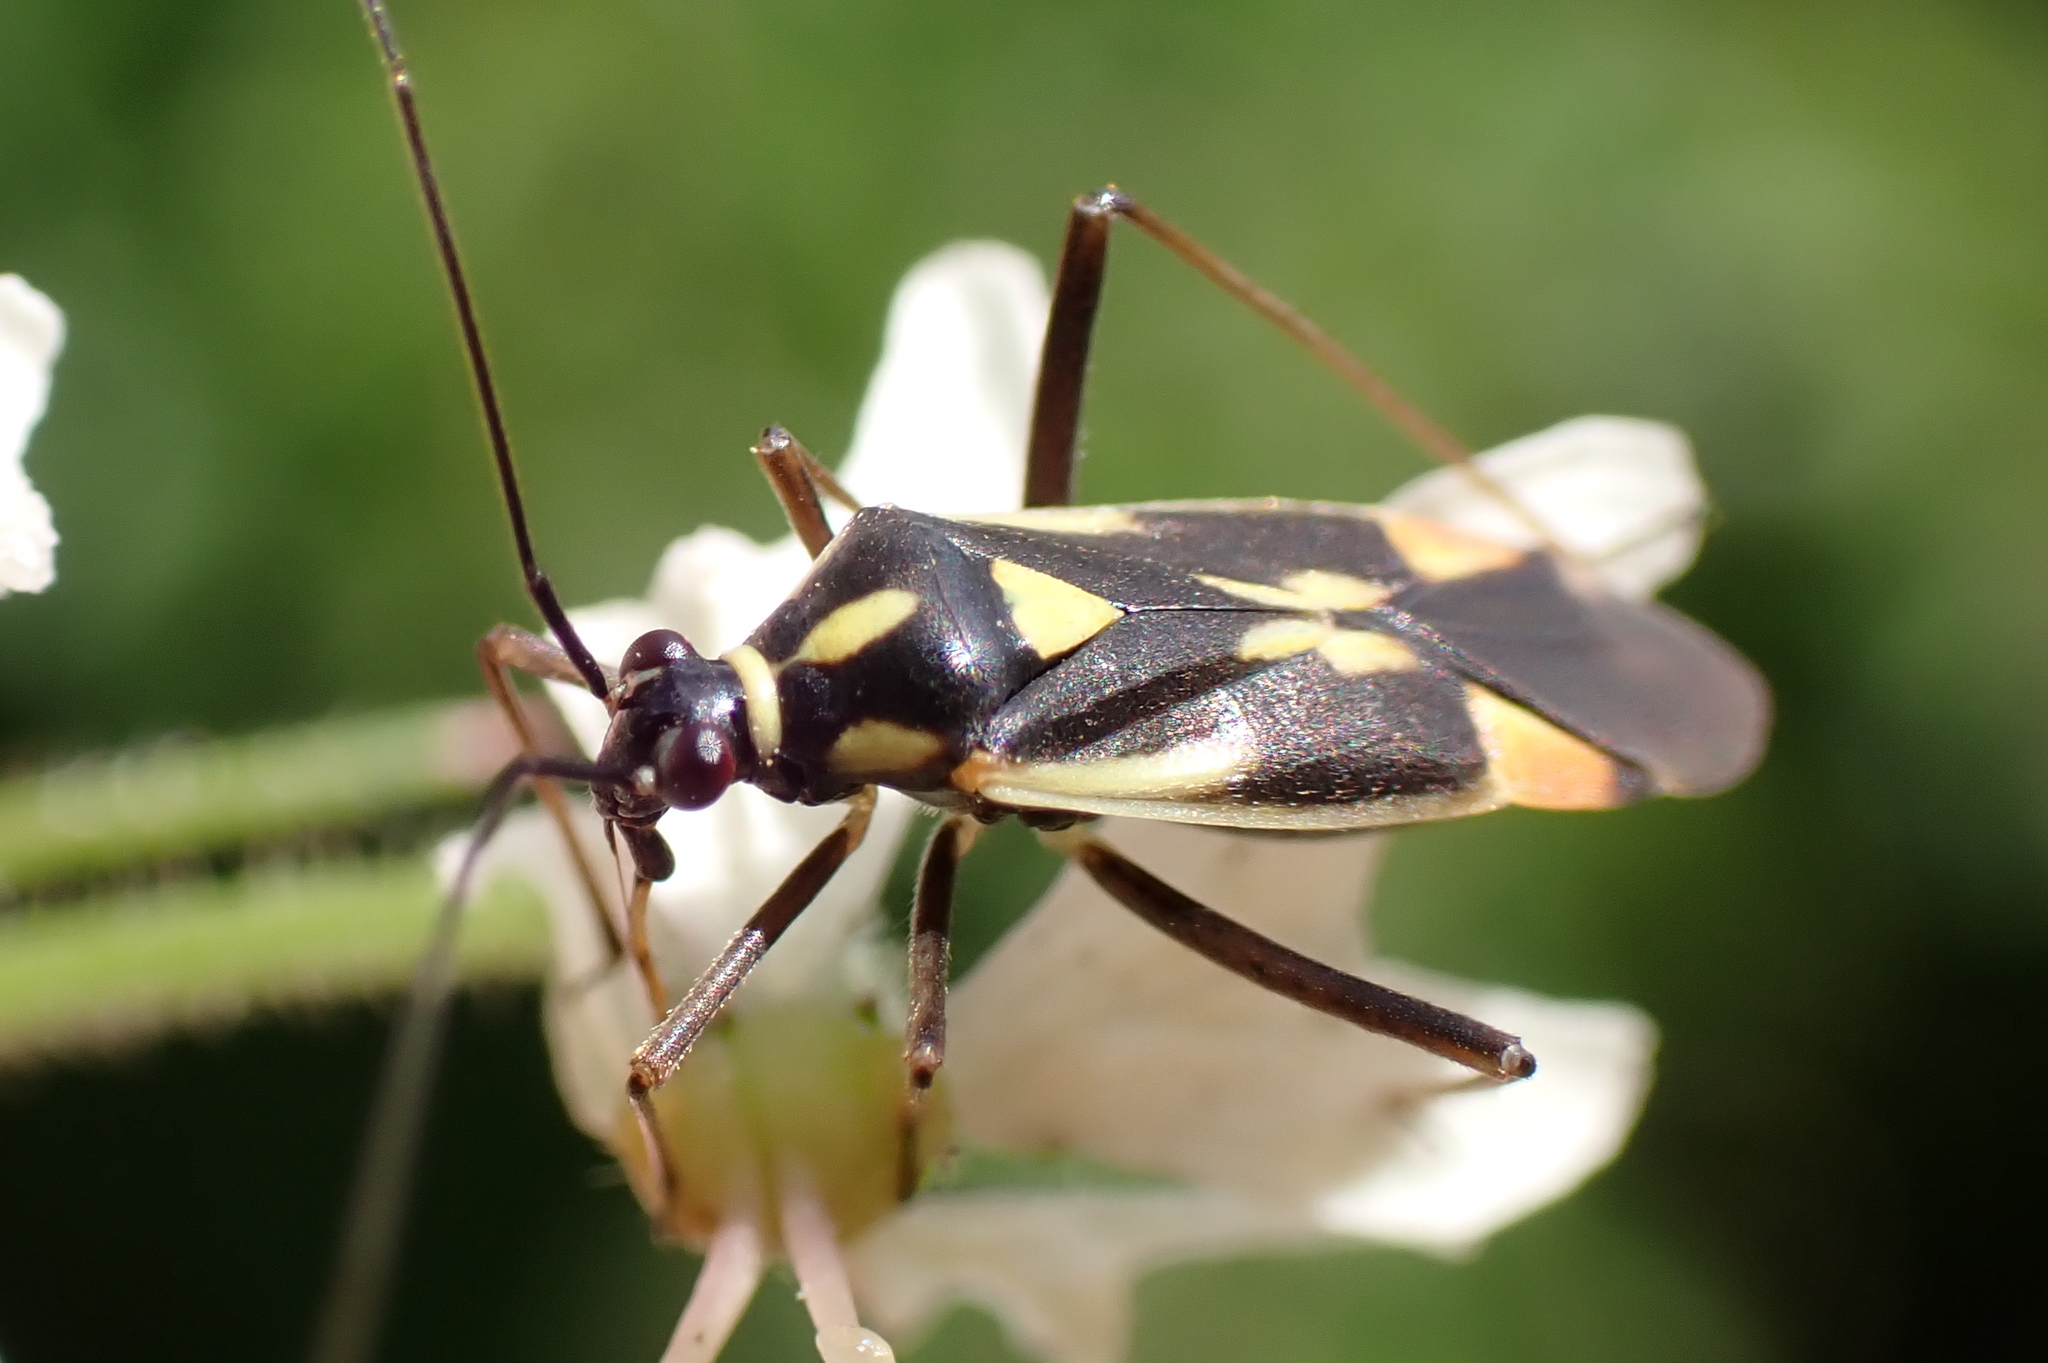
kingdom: Animalia
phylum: Arthropoda
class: Insecta
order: Hemiptera
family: Miridae
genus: Grypocoris
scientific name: Grypocoris stysi
